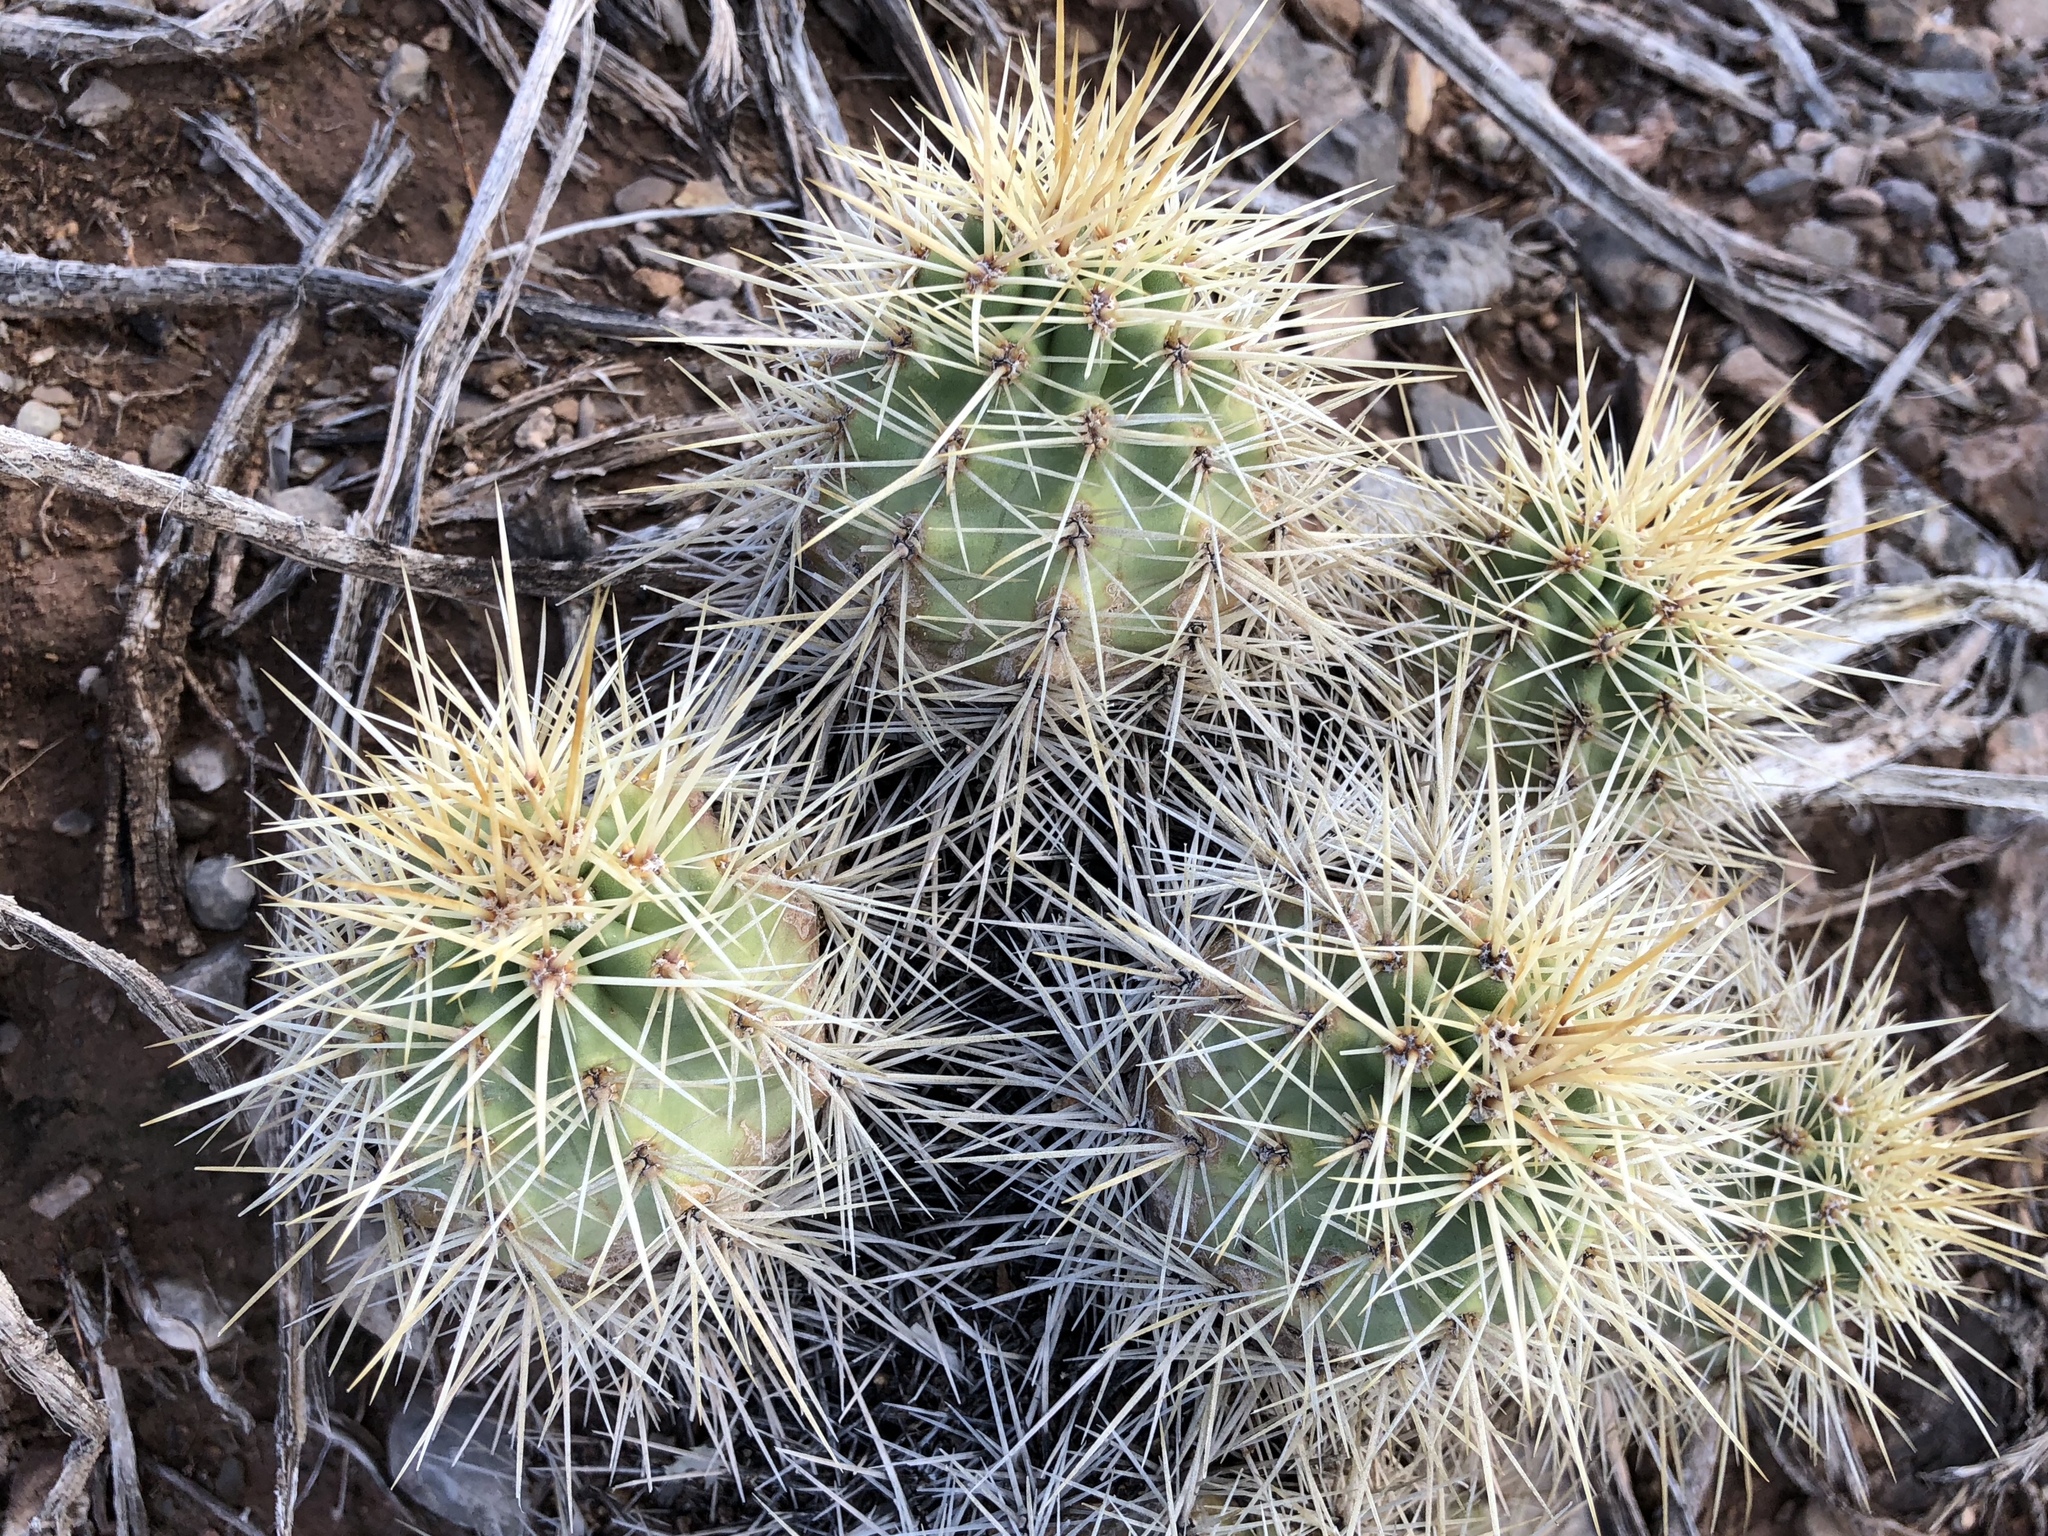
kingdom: Plantae
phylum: Tracheophyta
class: Magnoliopsida
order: Caryophyllales
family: Cactaceae
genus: Echinocereus
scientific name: Echinocereus coccineus
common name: Scarlet hedgehog cactus
